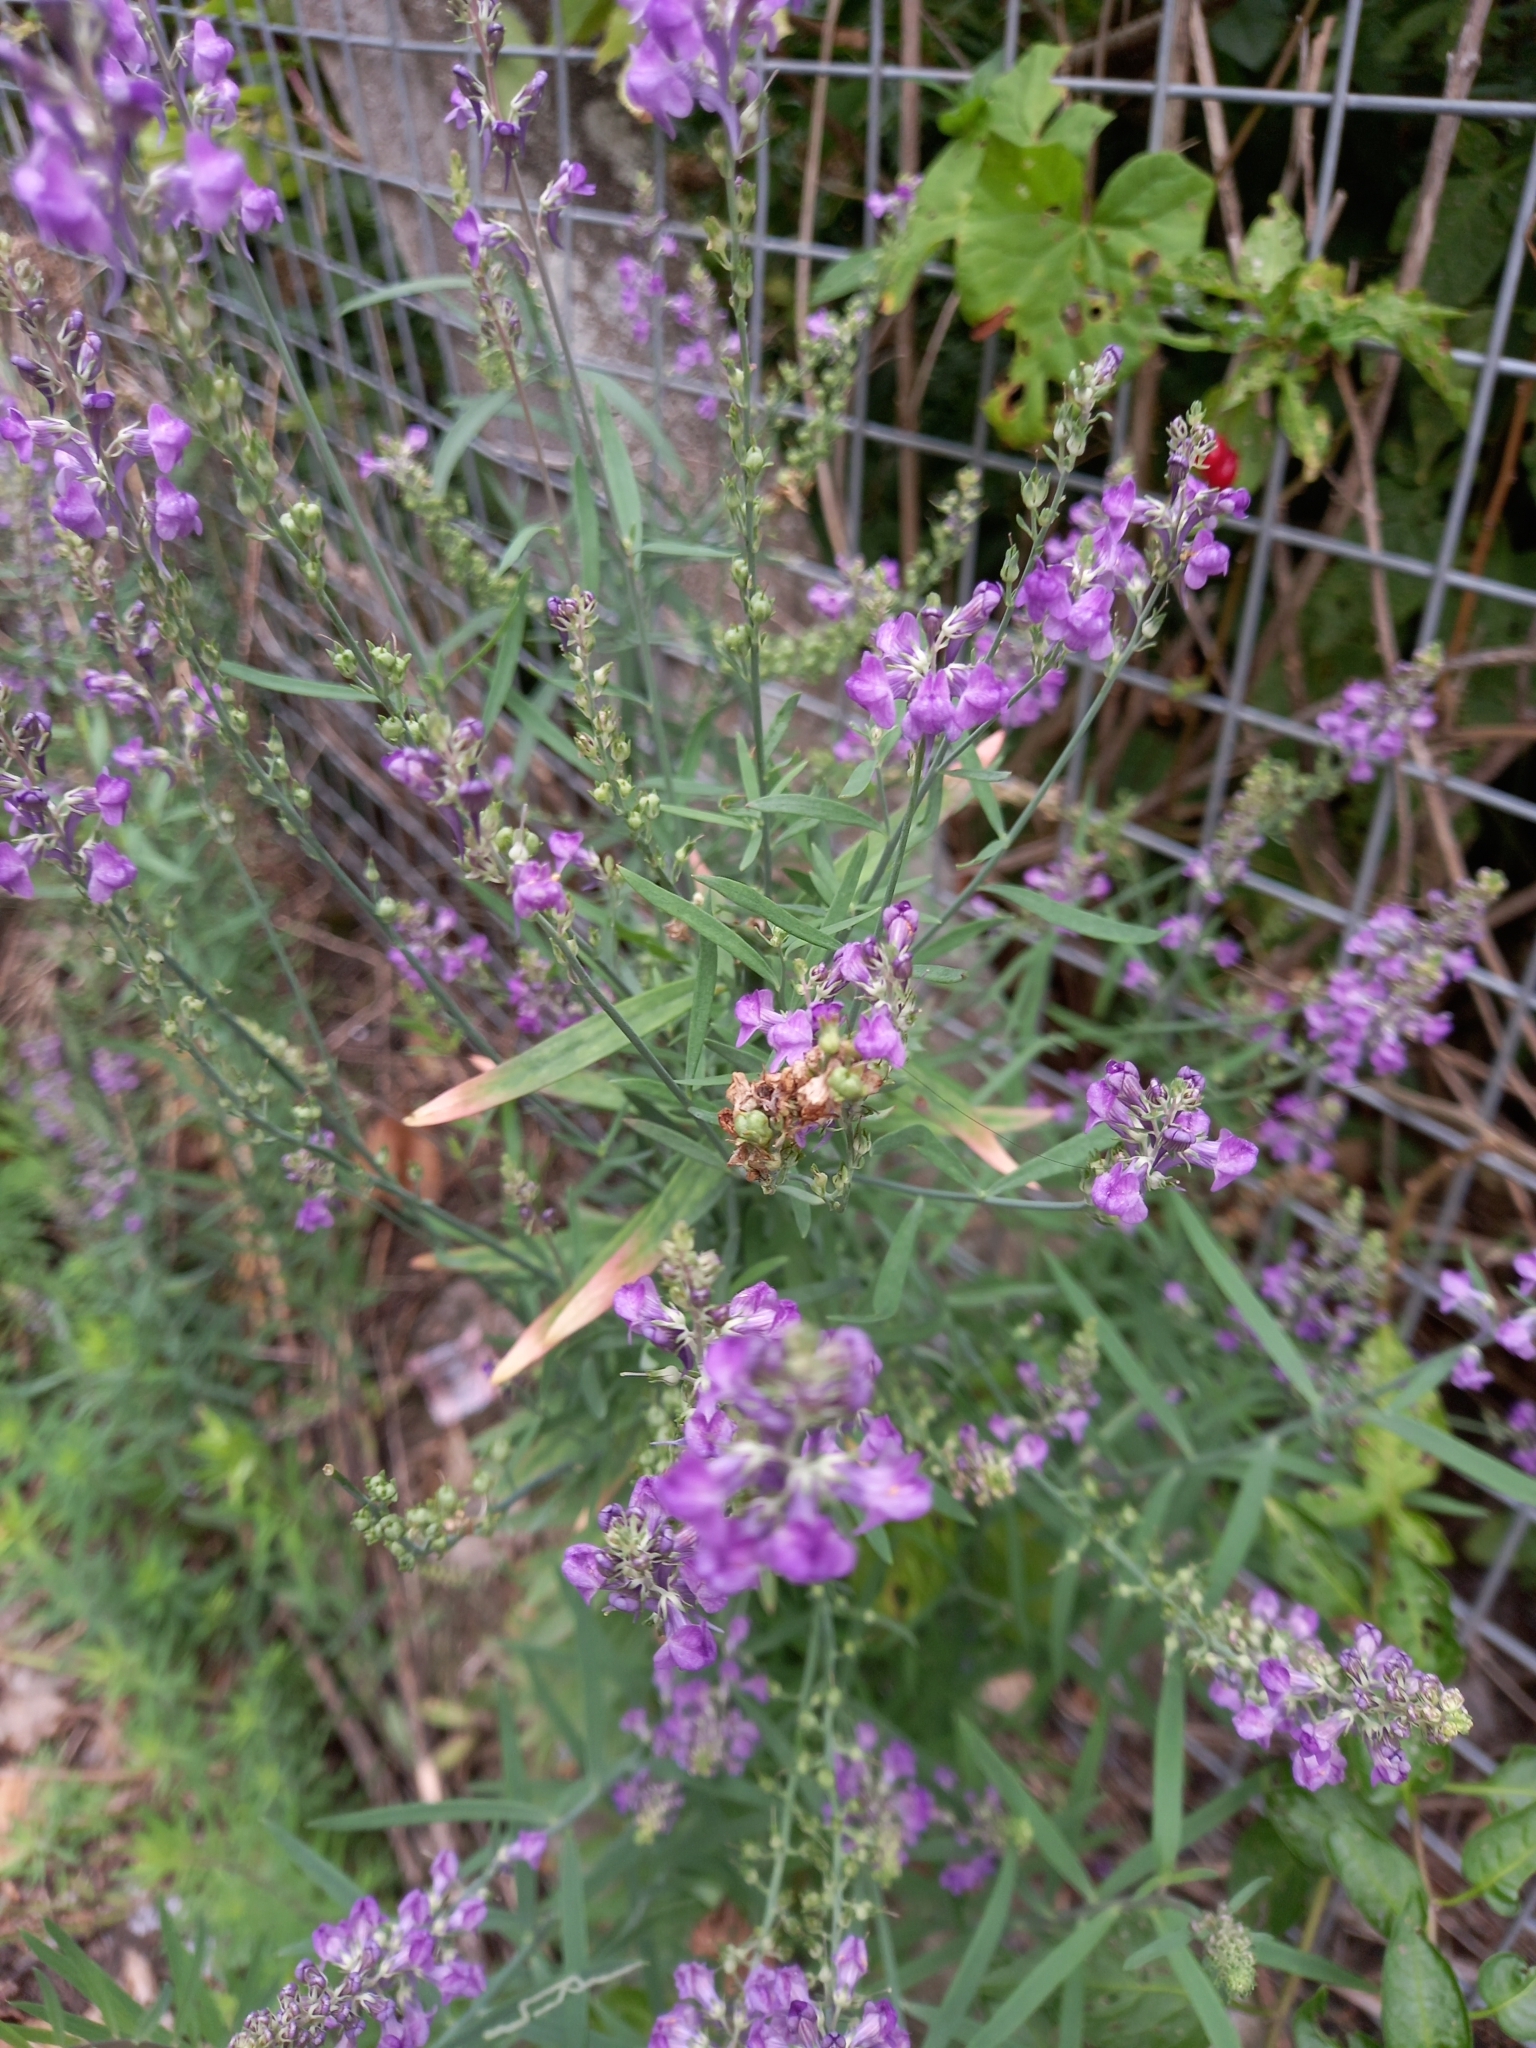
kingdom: Plantae
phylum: Tracheophyta
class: Magnoliopsida
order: Lamiales
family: Plantaginaceae
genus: Linaria
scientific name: Linaria purpurea
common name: Purple toadflax
